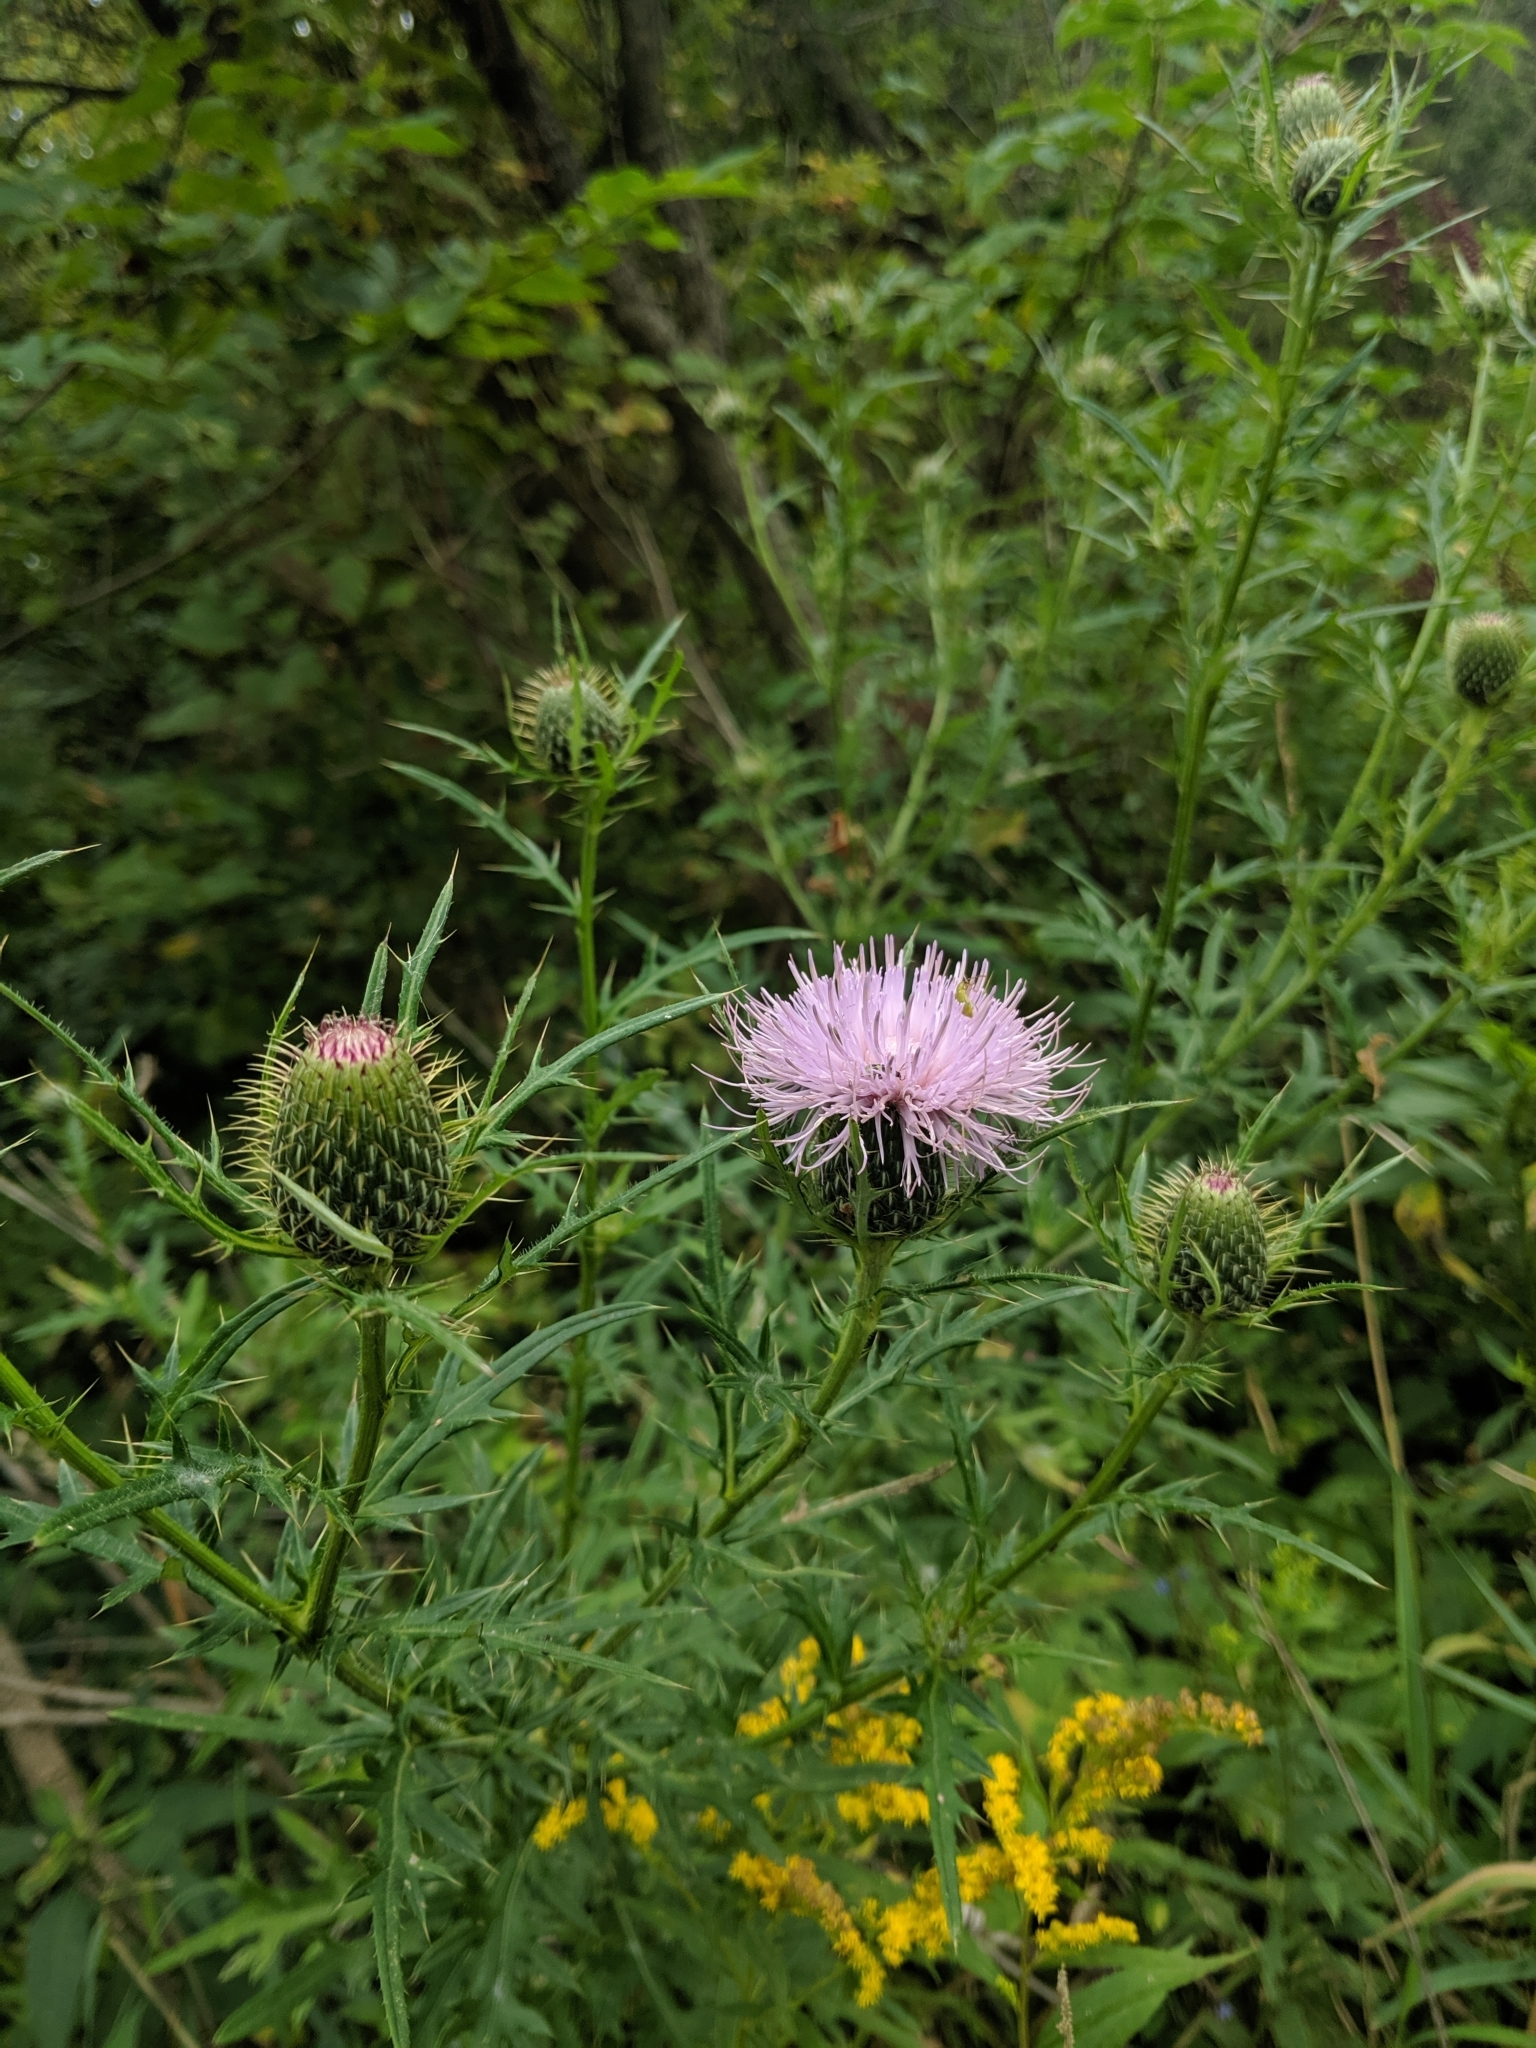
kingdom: Plantae
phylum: Tracheophyta
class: Magnoliopsida
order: Asterales
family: Asteraceae
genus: Cirsium
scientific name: Cirsium discolor
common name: Field thistle
